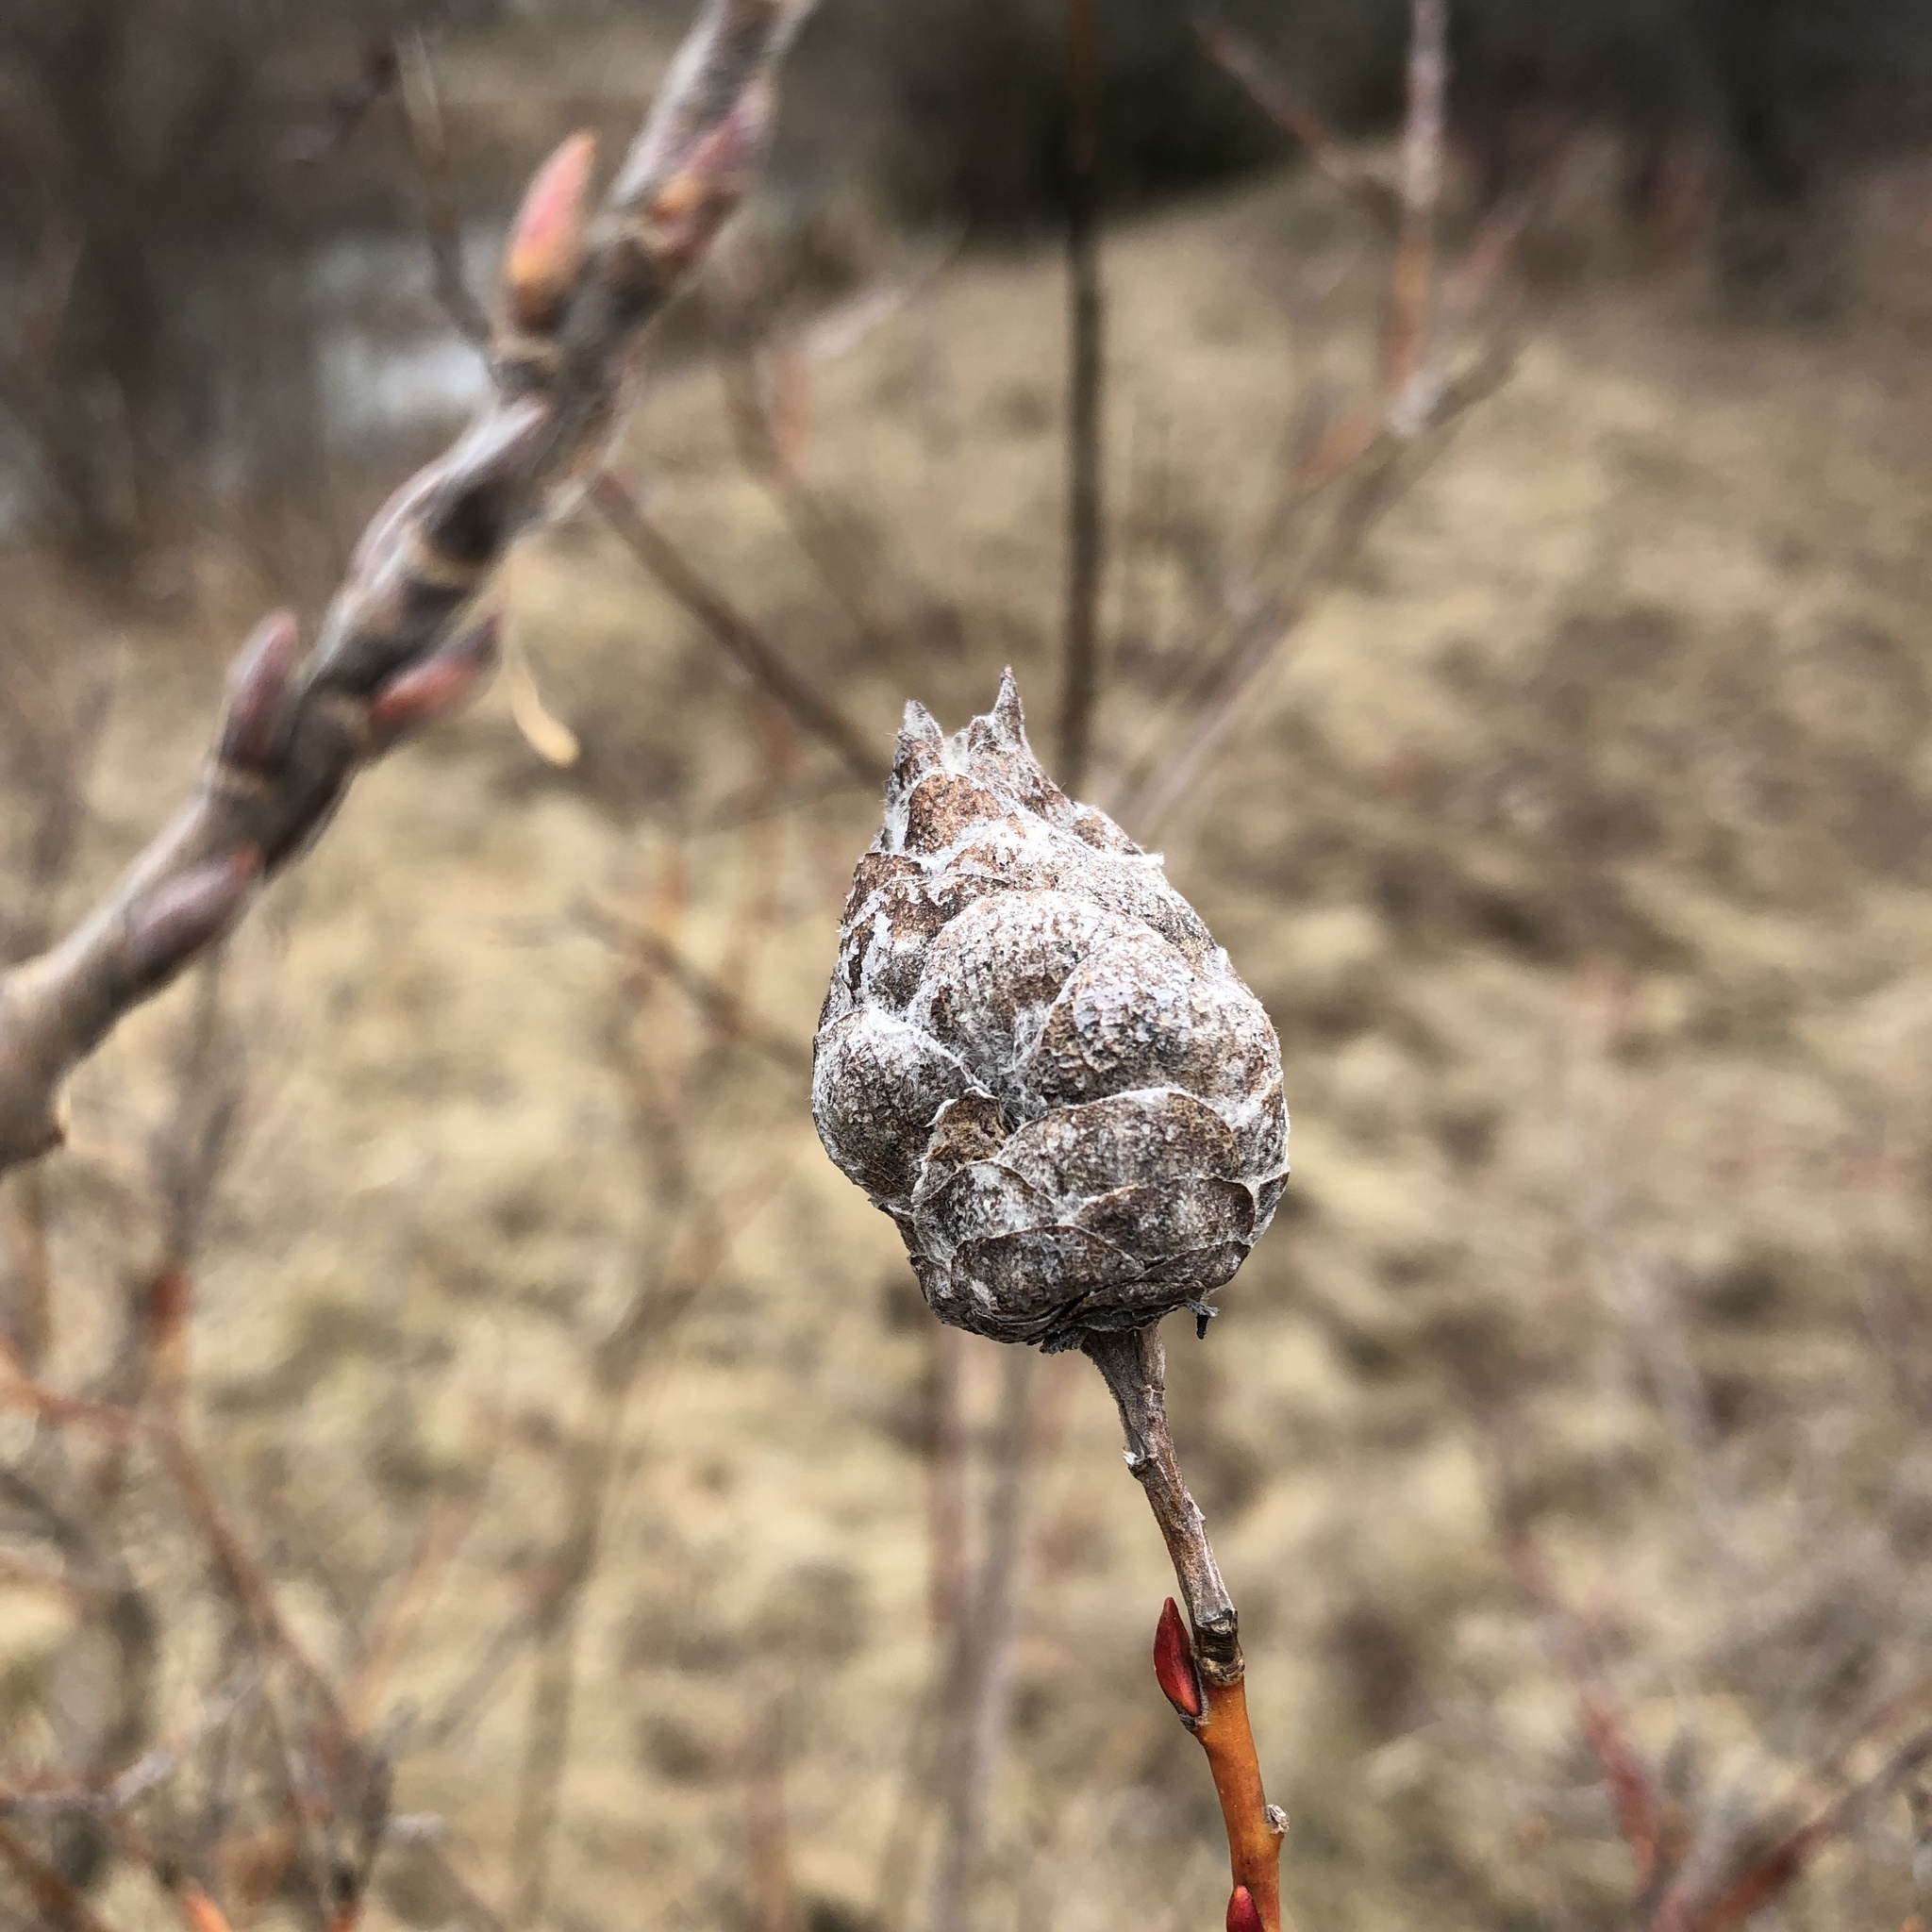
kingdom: Animalia
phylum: Arthropoda
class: Insecta
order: Diptera
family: Cecidomyiidae
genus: Rabdophaga
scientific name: Rabdophaga strobiloides
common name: Willow pinecone gall midge
